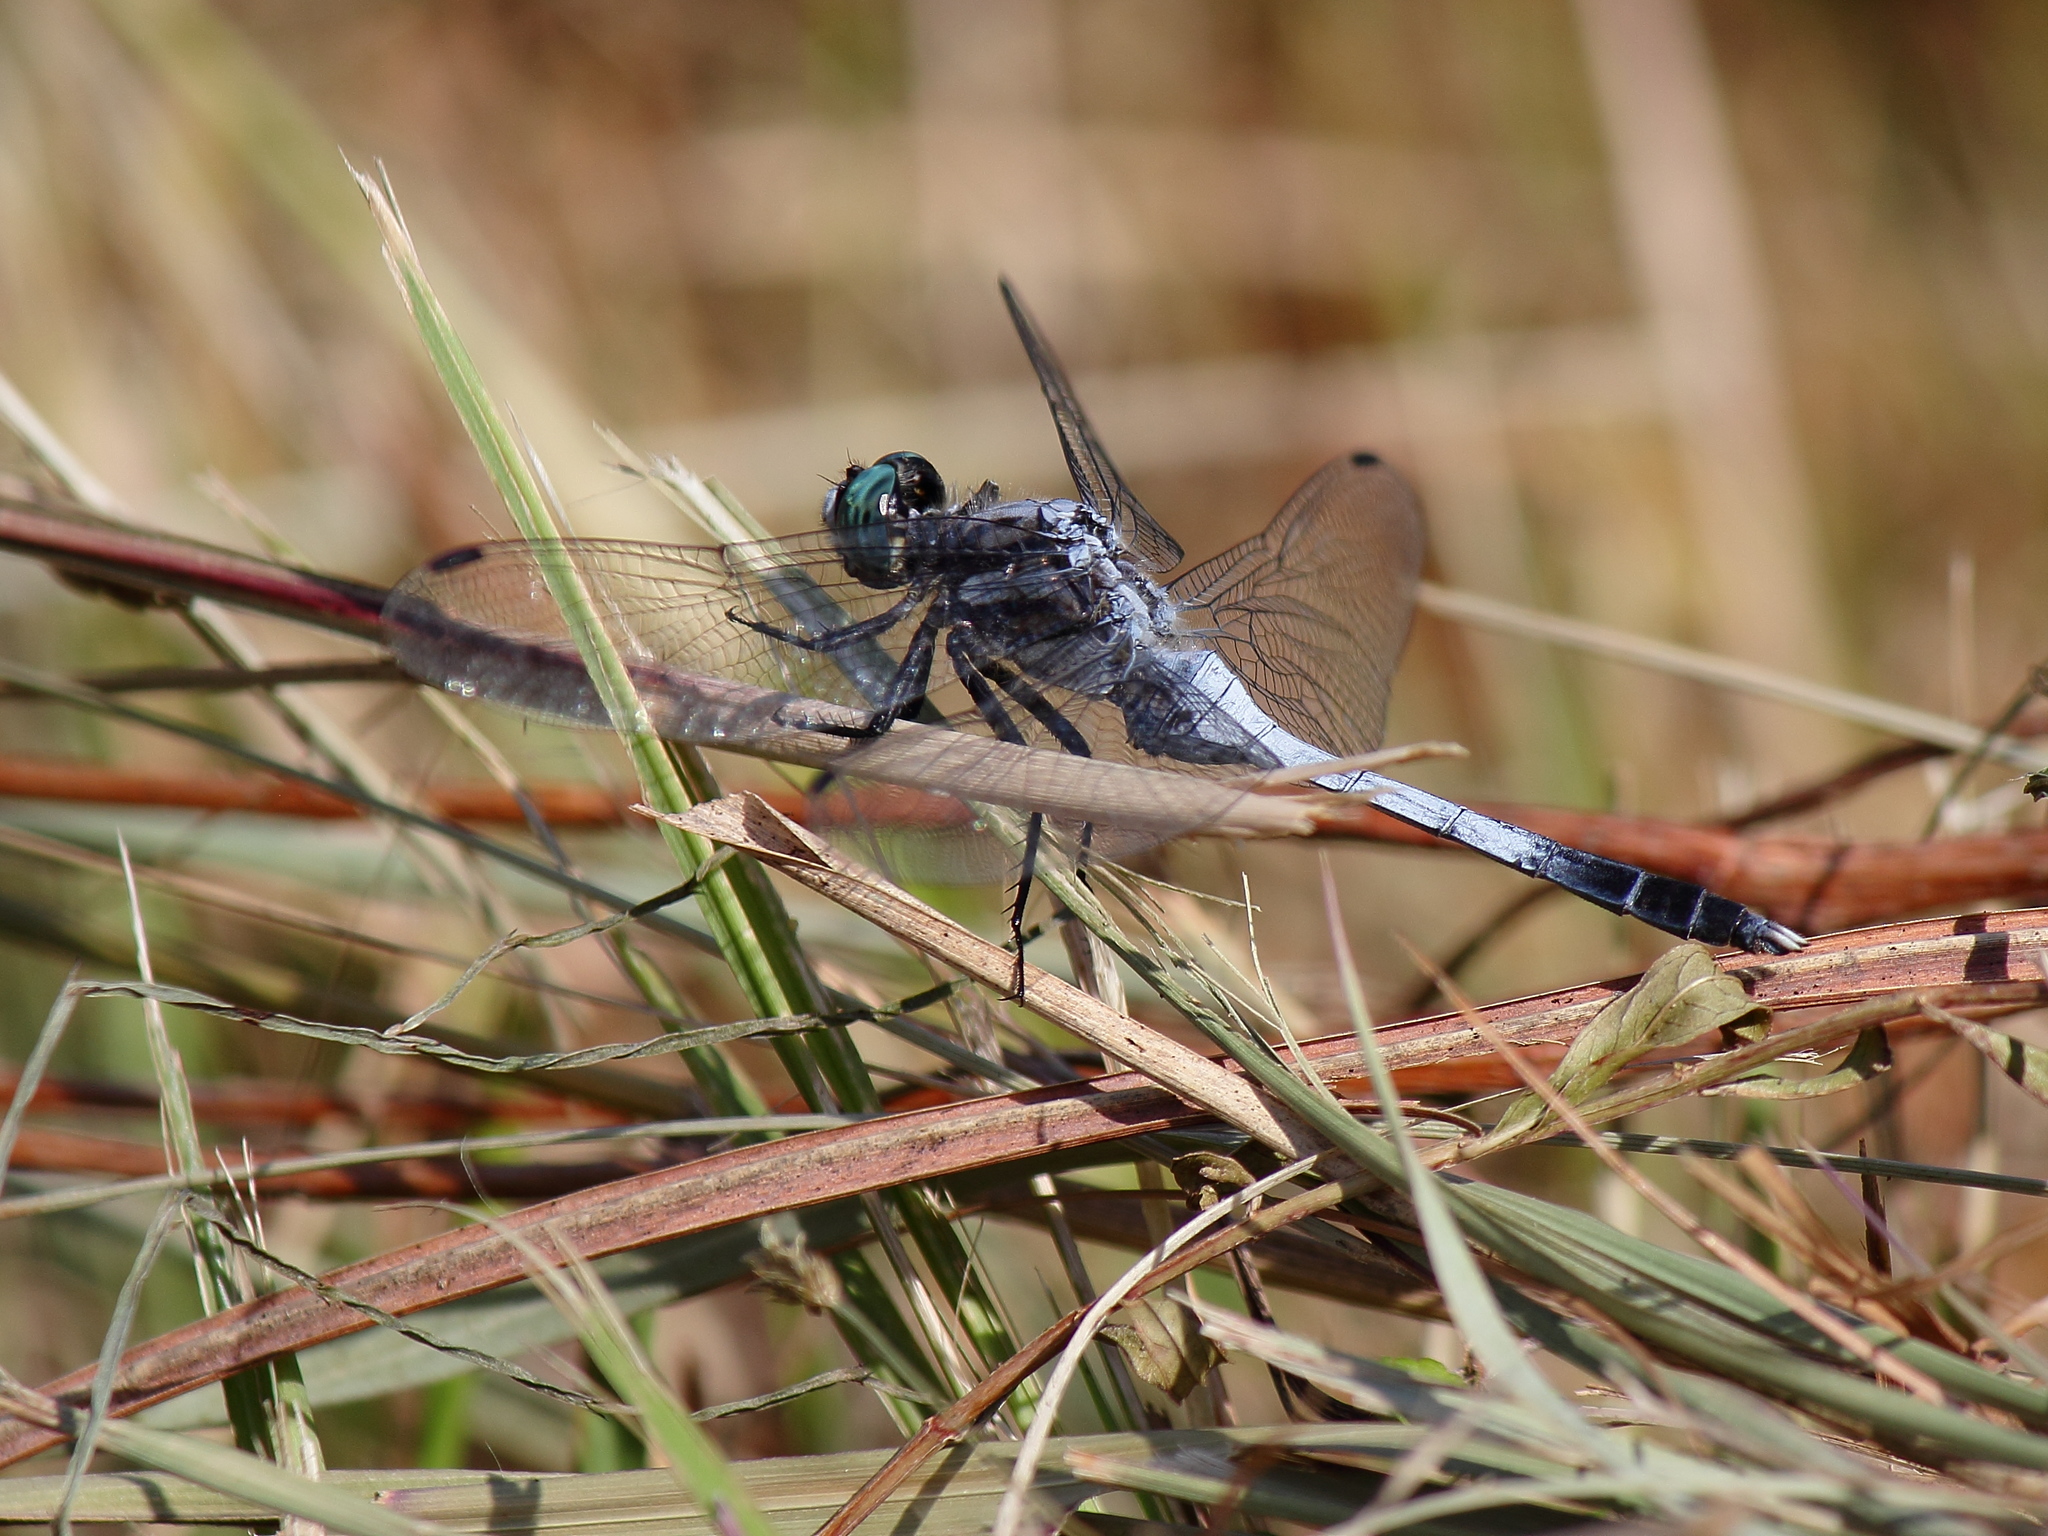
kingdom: Animalia
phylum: Arthropoda
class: Insecta
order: Odonata
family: Libellulidae
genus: Orthetrum
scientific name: Orthetrum albistylum
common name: White-tailed skimmer
